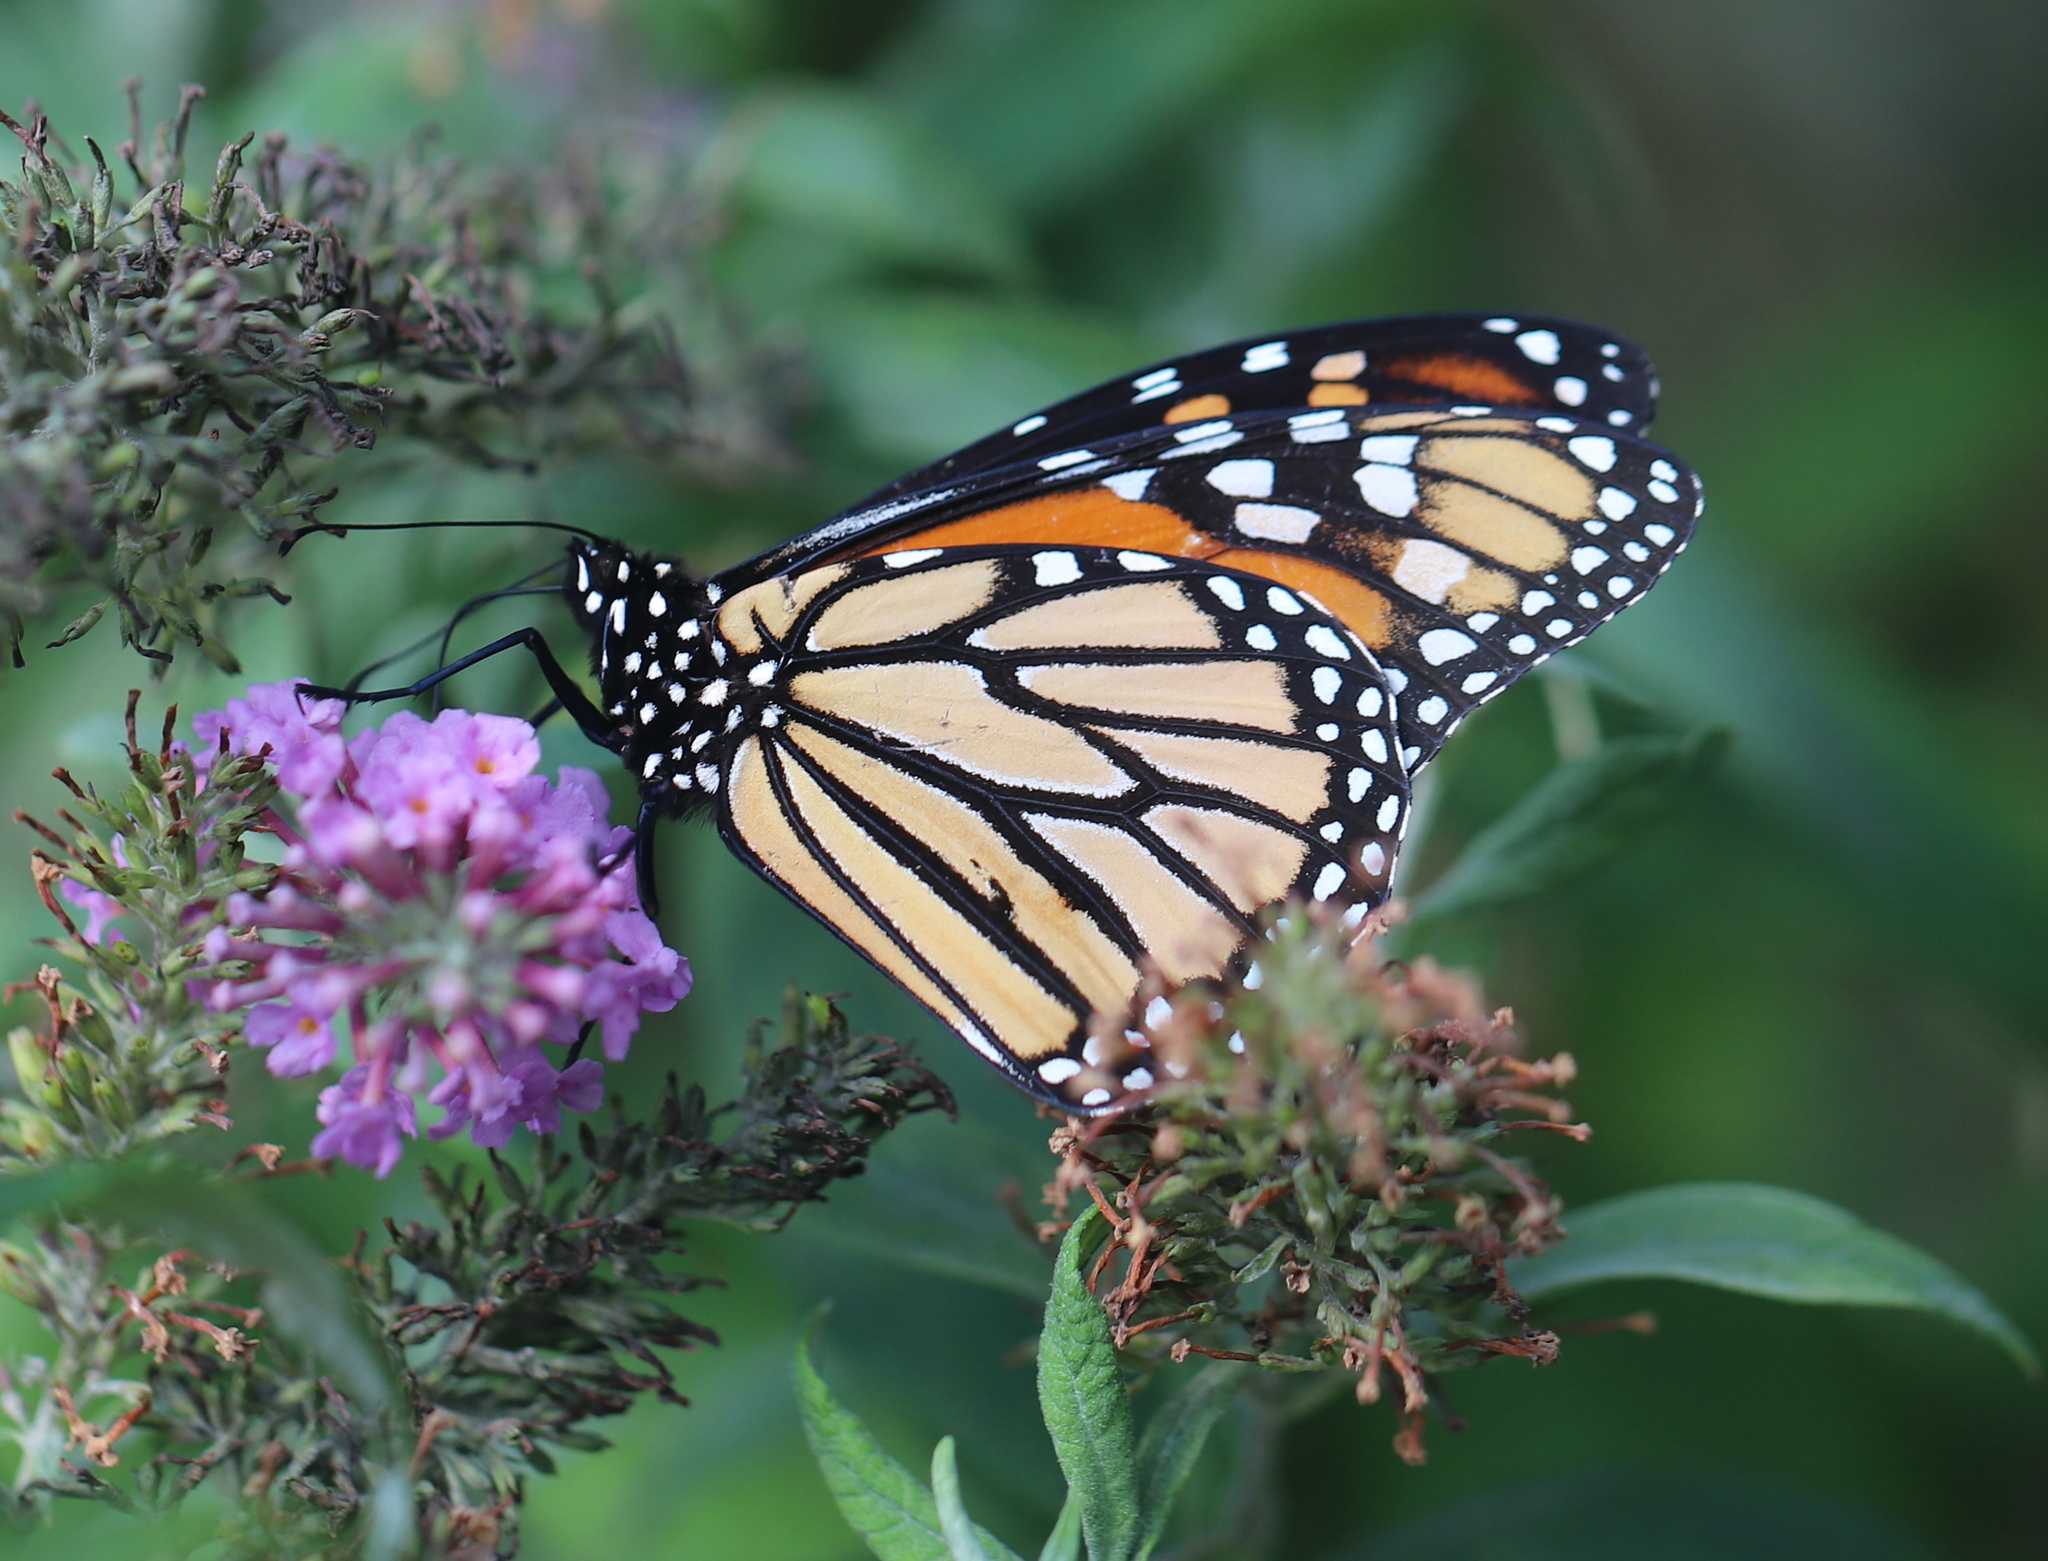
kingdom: Animalia
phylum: Arthropoda
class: Insecta
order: Lepidoptera
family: Nymphalidae
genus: Danaus
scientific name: Danaus plexippus
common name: Monarch
